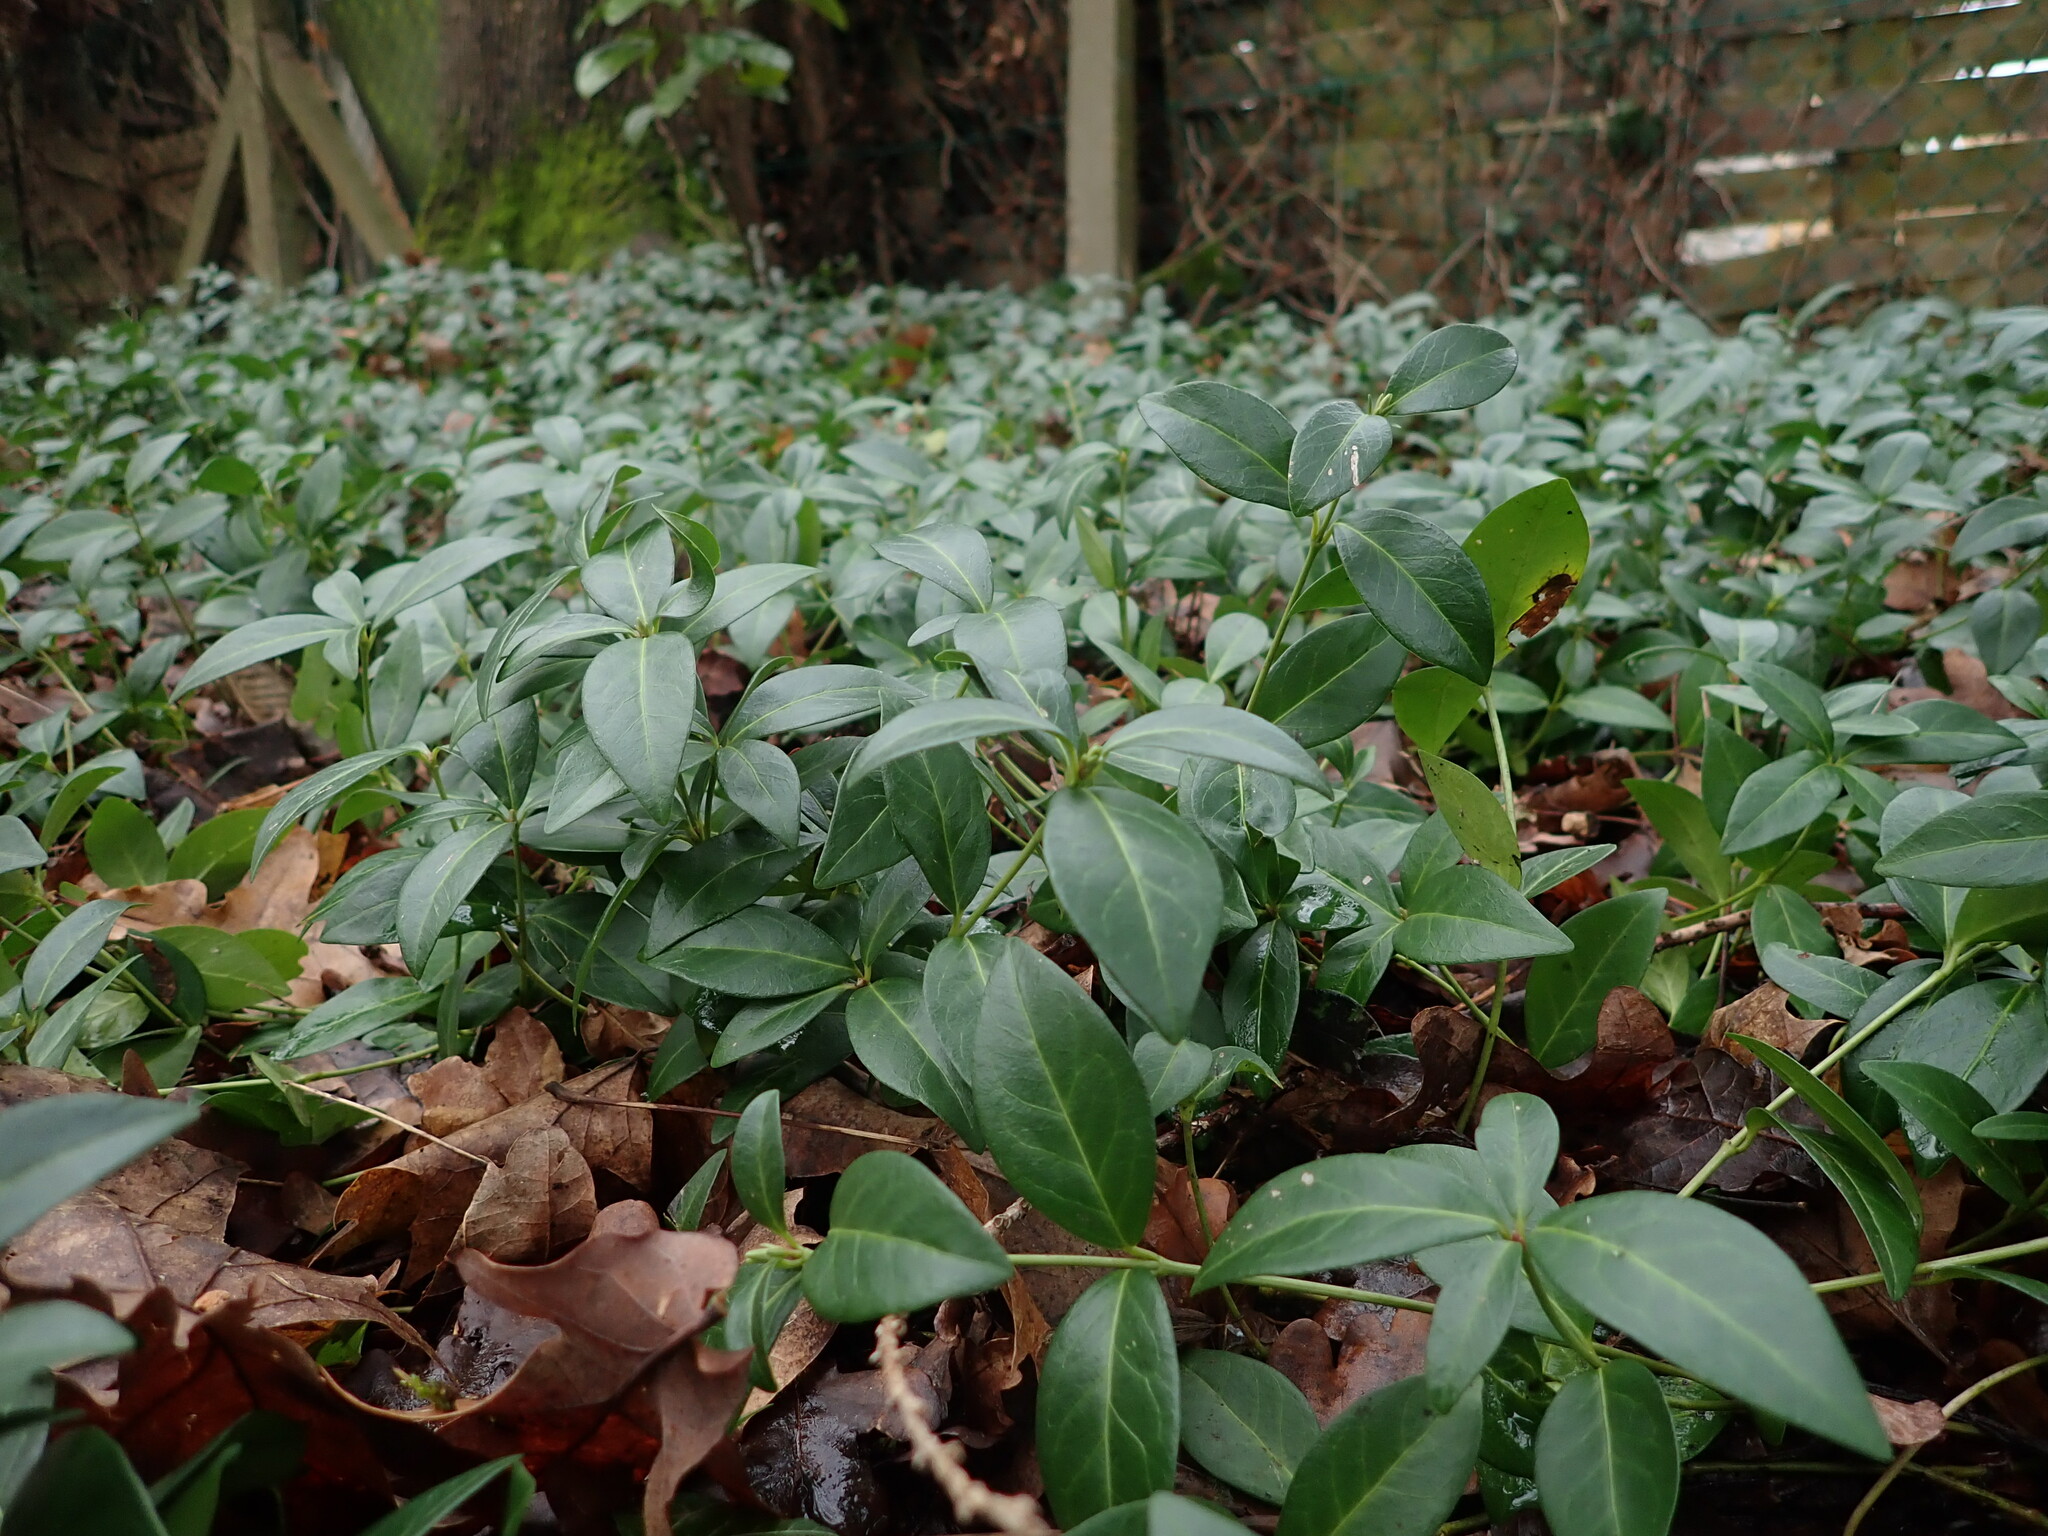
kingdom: Plantae
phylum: Tracheophyta
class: Magnoliopsida
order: Gentianales
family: Apocynaceae
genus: Vinca
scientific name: Vinca minor
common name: Lesser periwinkle
